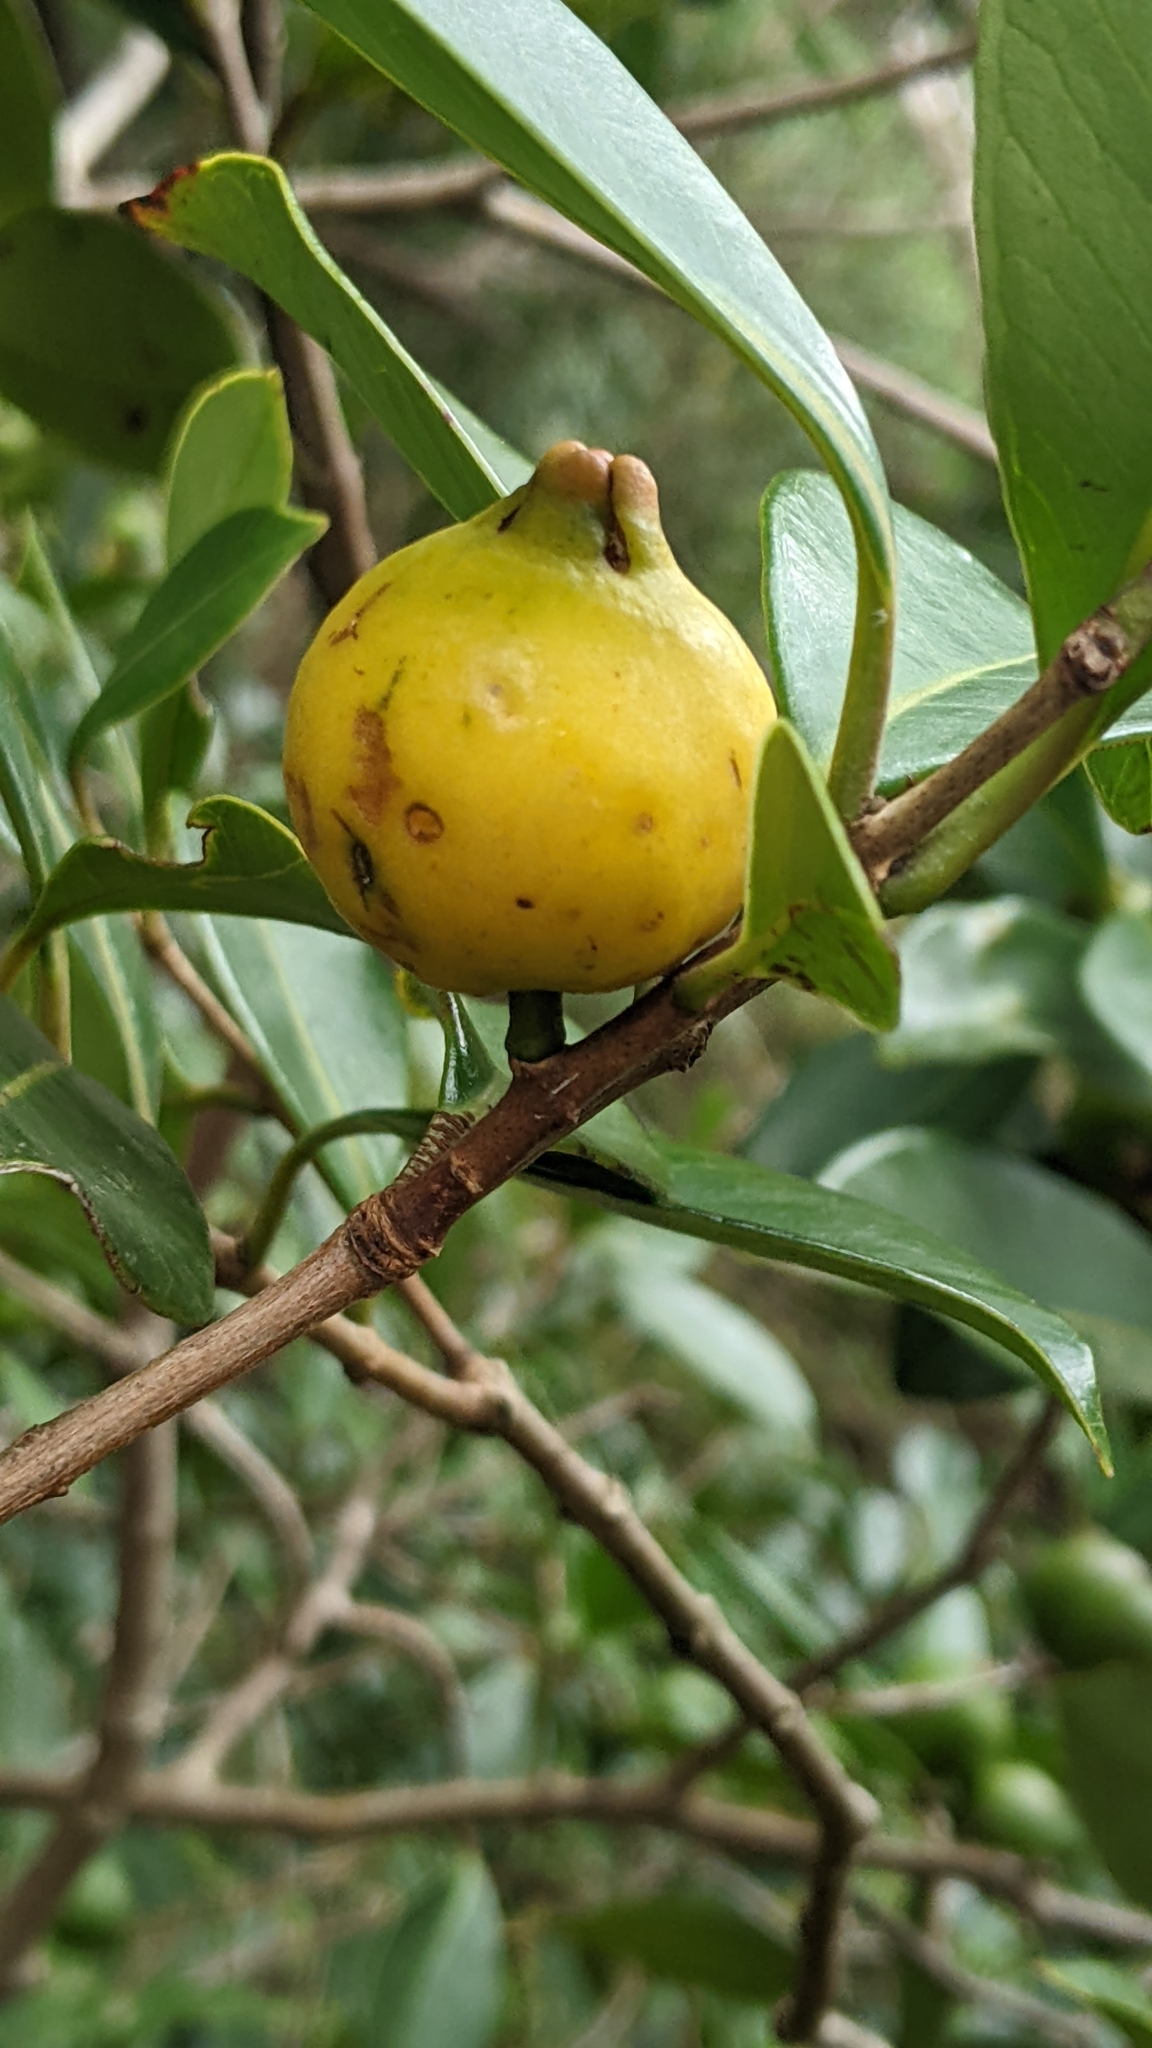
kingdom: Plantae
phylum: Tracheophyta
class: Magnoliopsida
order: Myrtales
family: Myrtaceae
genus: Psidium
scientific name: Psidium cattleianum
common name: Strawberry guava
